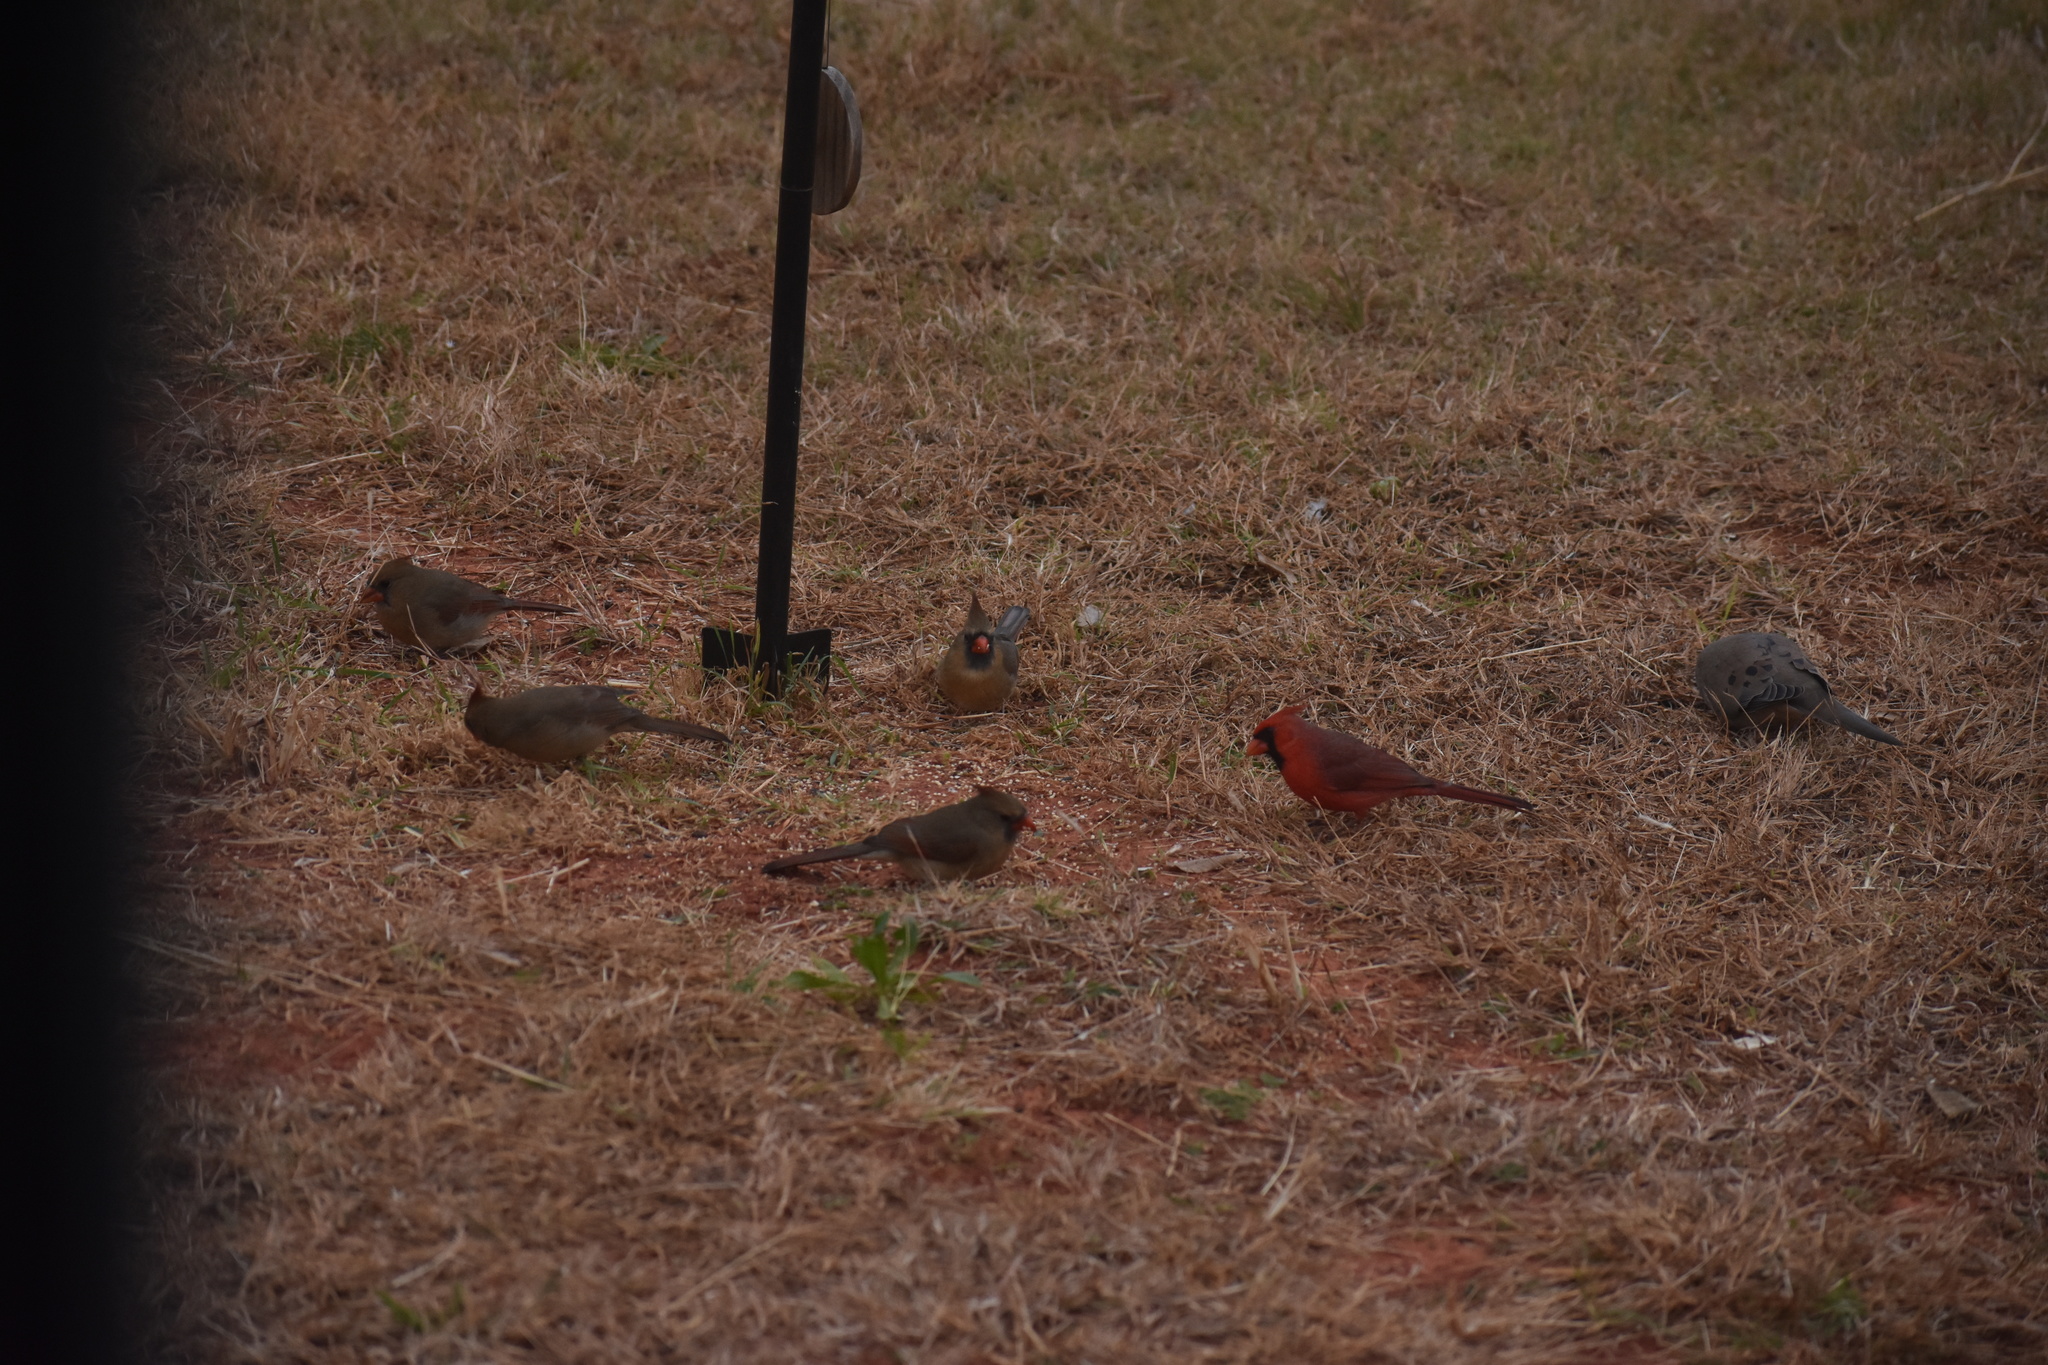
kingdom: Animalia
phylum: Chordata
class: Aves
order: Passeriformes
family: Cardinalidae
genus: Cardinalis
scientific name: Cardinalis cardinalis
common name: Northern cardinal
